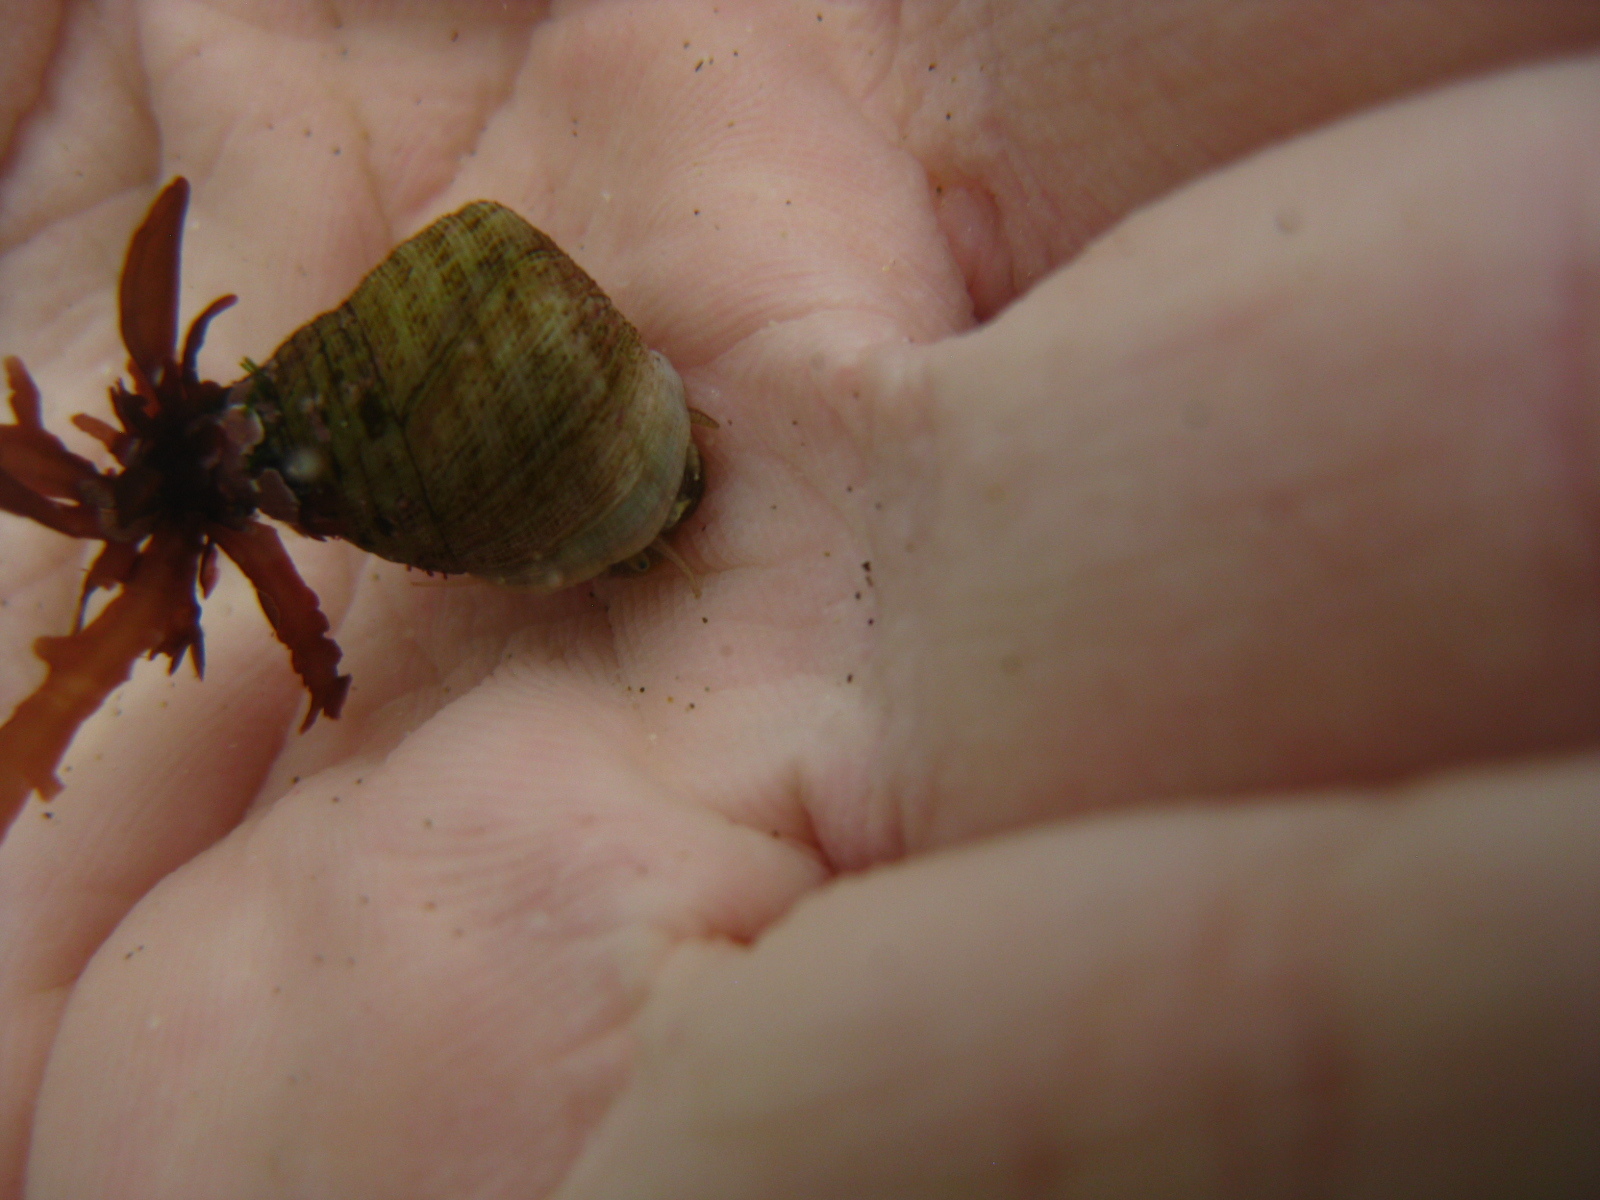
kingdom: Animalia
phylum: Mollusca
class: Gastropoda
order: Trochida
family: Trochidae
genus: Micrelenchus
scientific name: Micrelenchus purpureus
